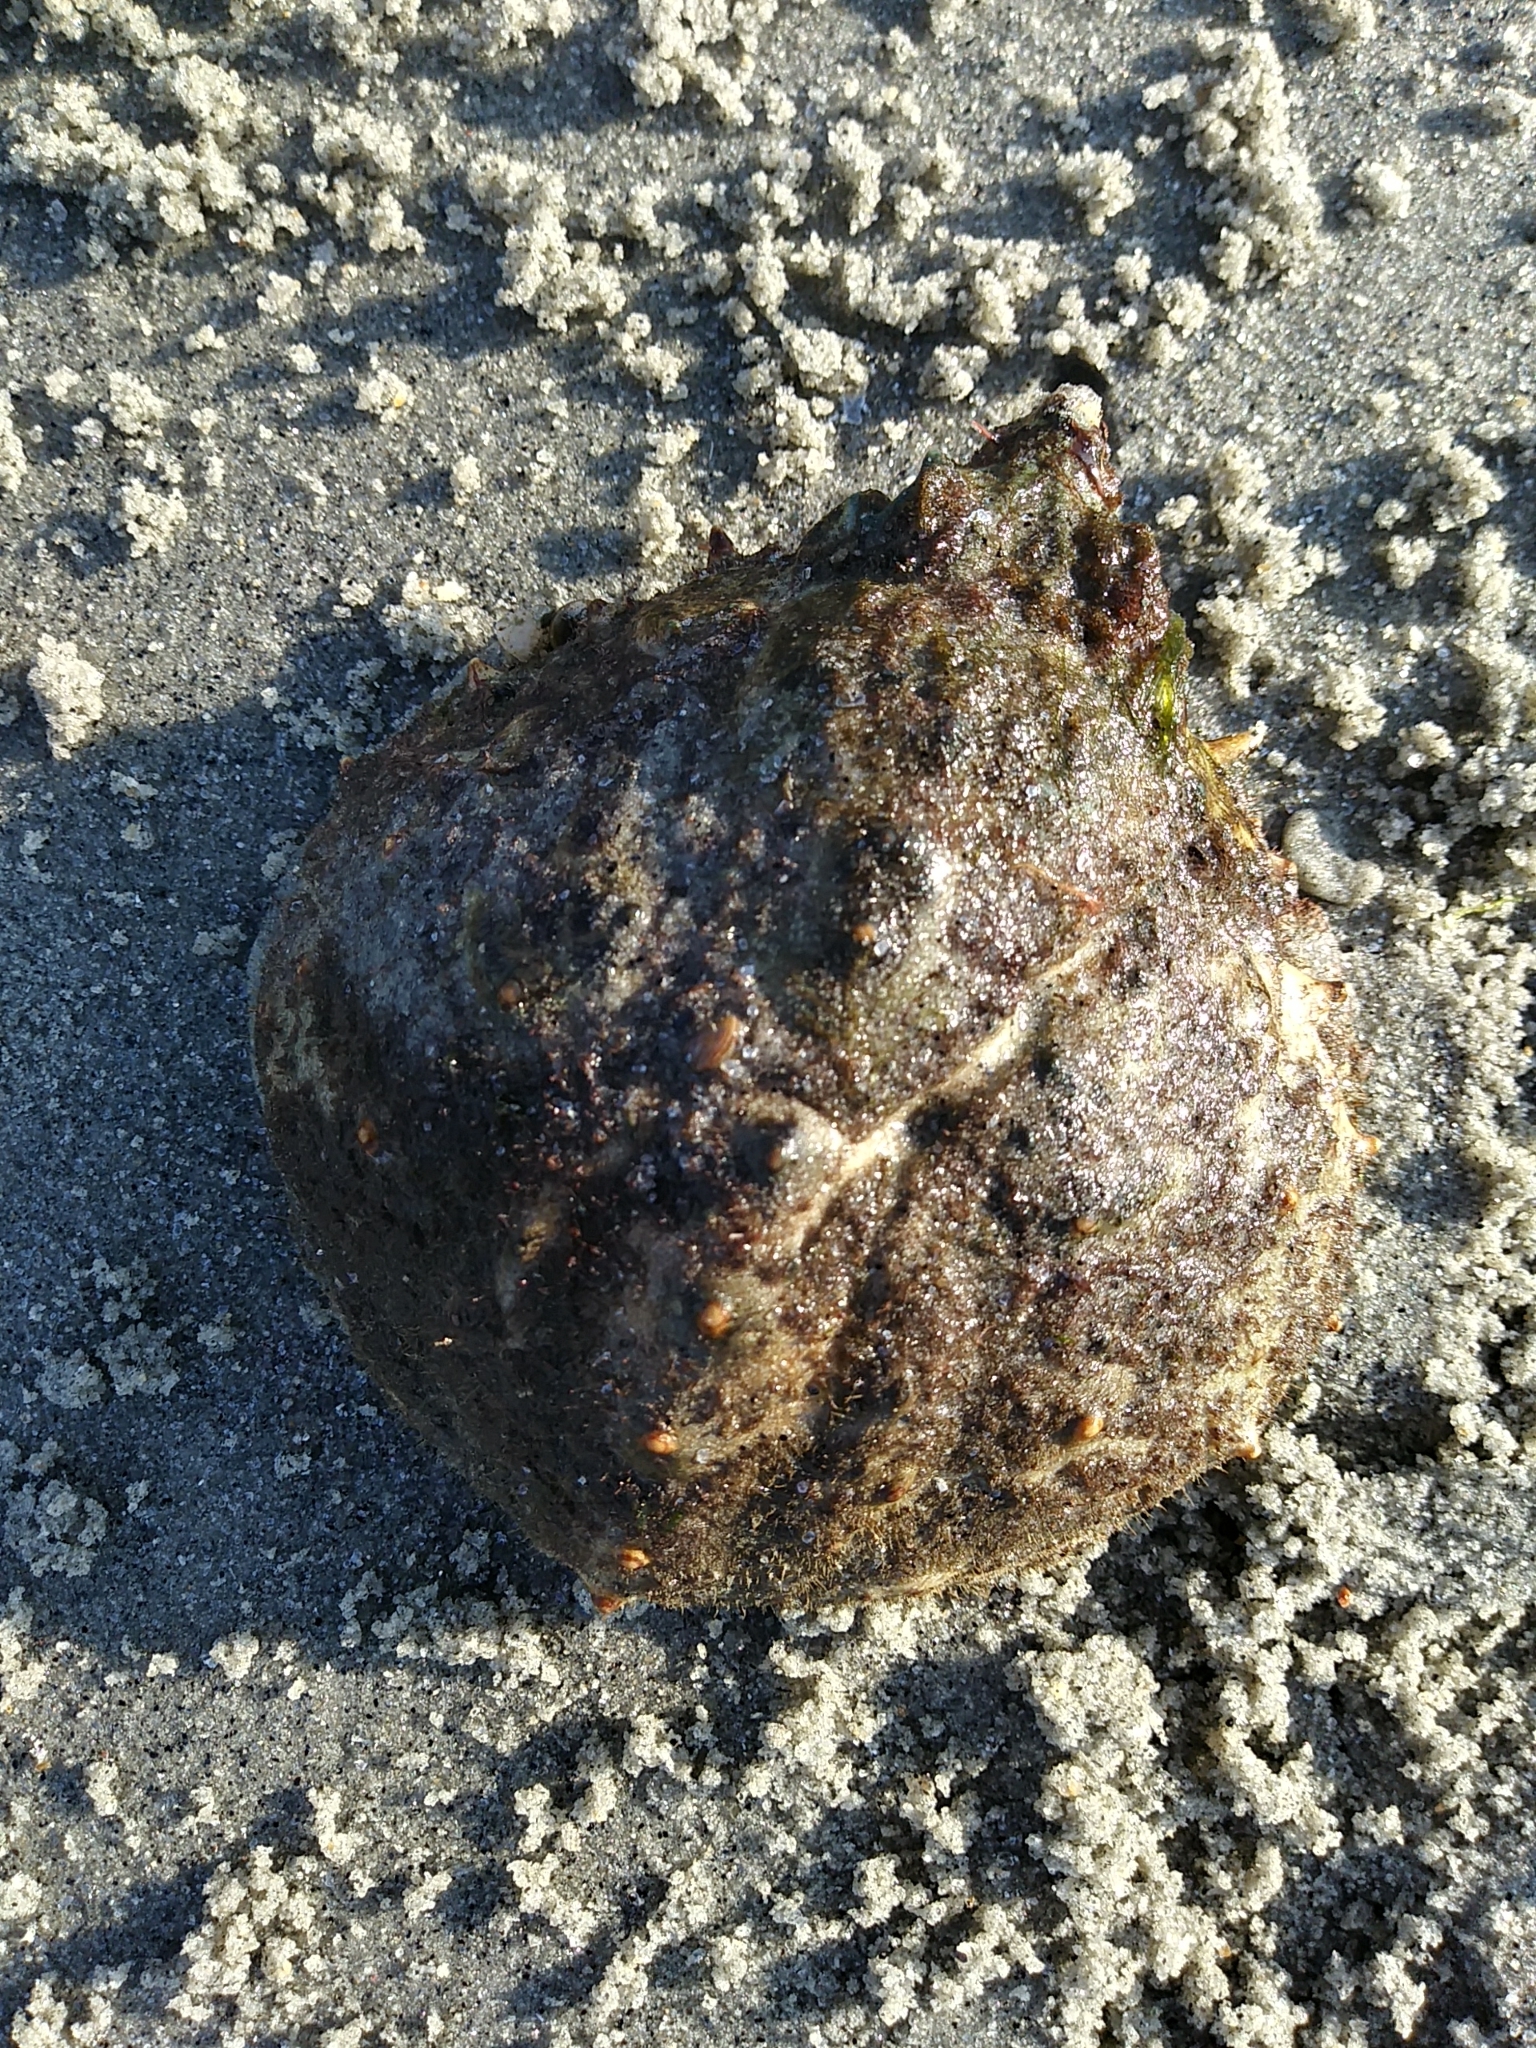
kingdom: Animalia
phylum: Arthropoda
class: Malacostraca
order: Decapoda
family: Epialtidae
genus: Libinia
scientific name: Libinia emarginata
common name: Common spider crab
